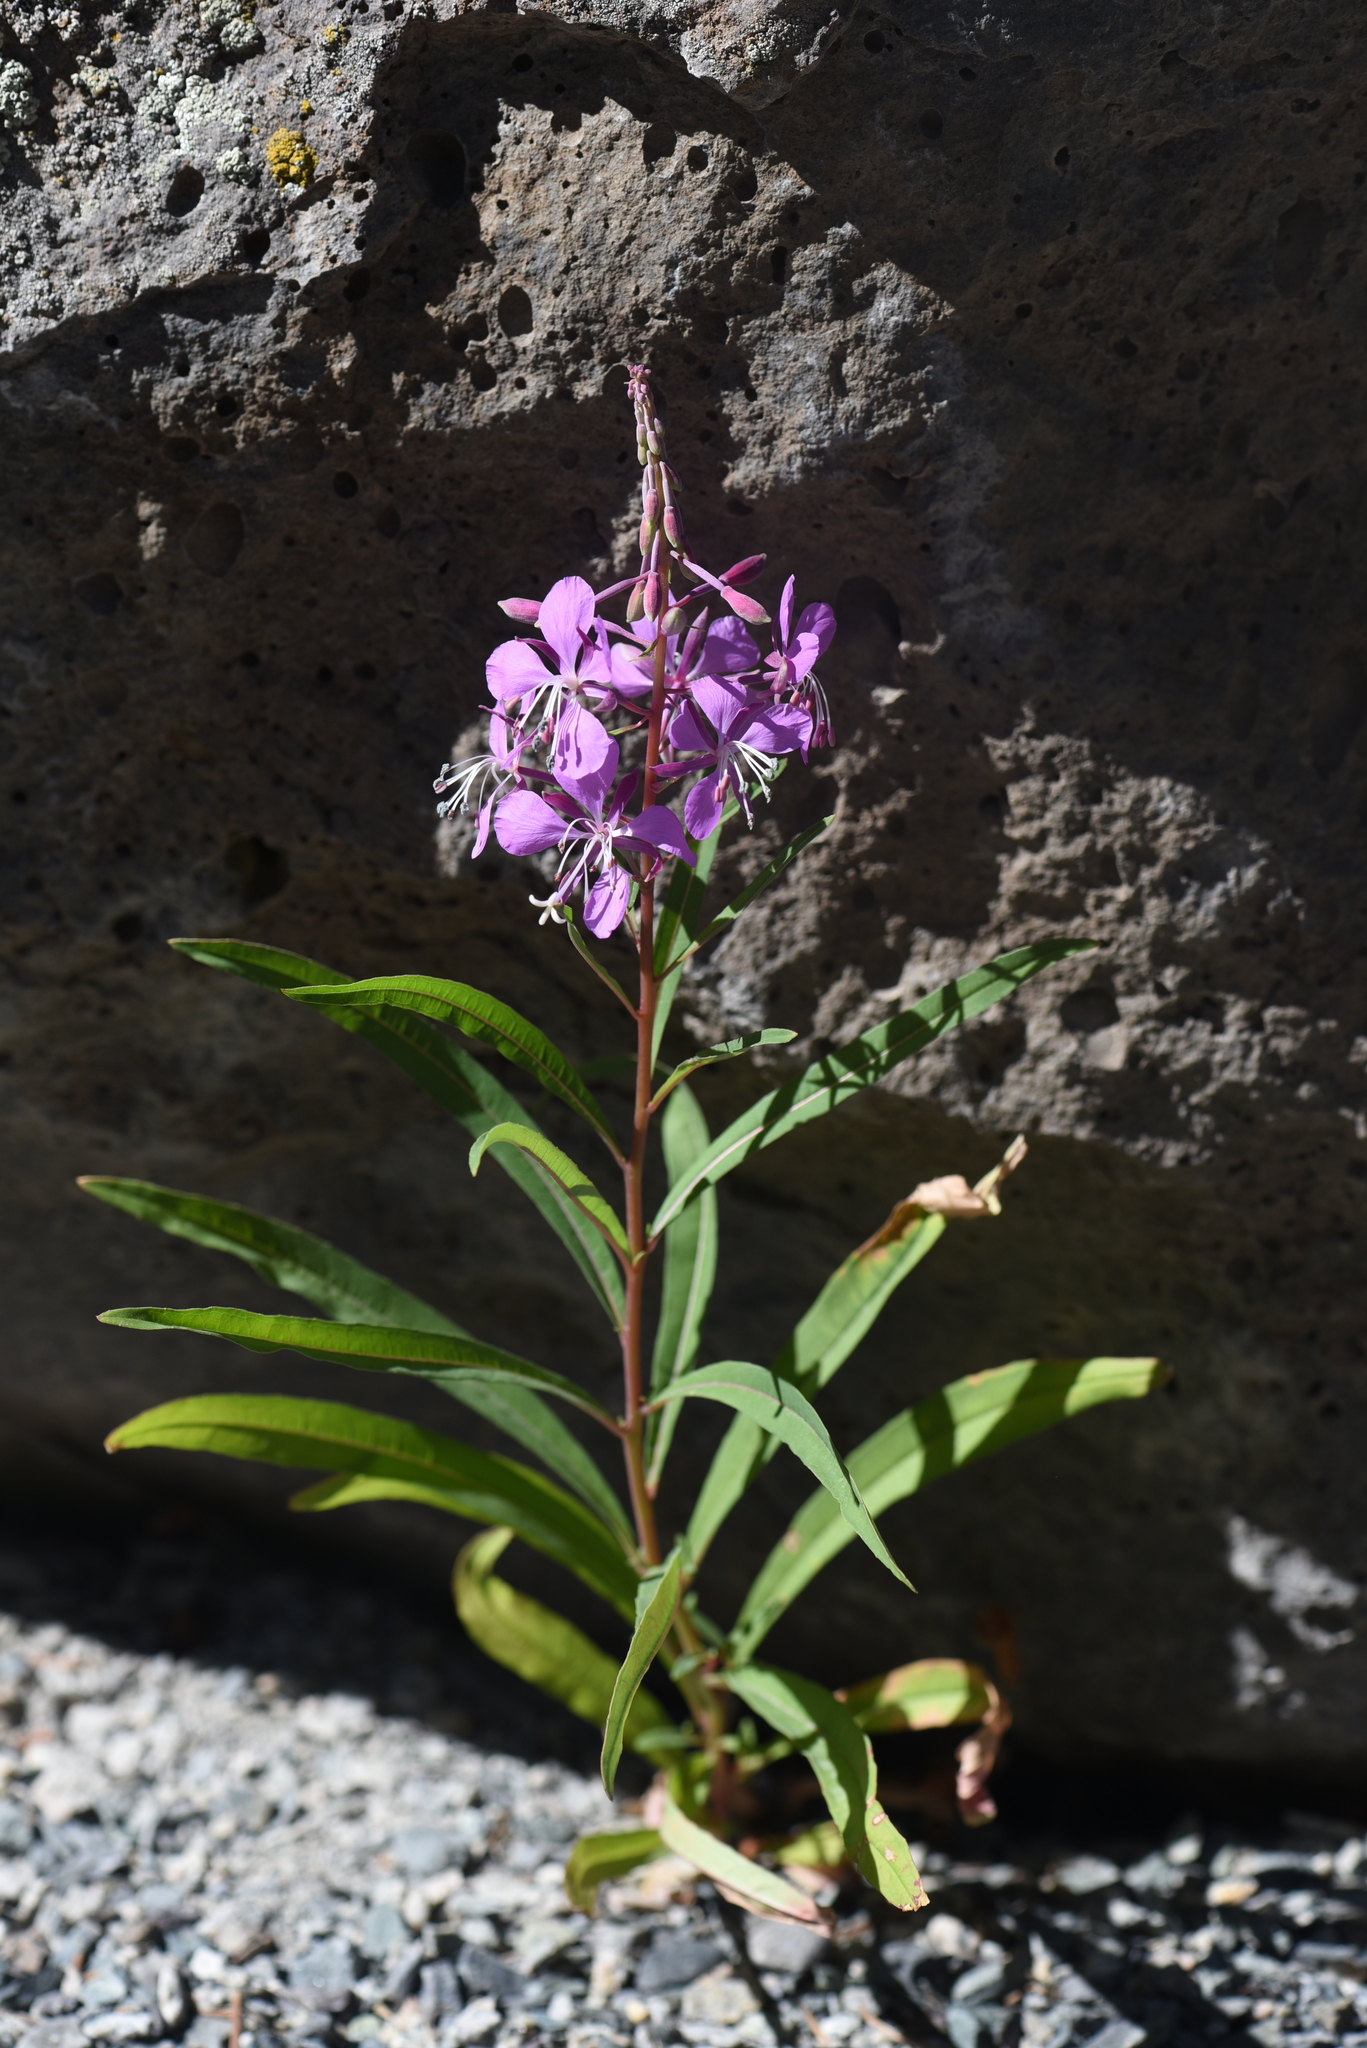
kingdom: Plantae
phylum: Tracheophyta
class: Magnoliopsida
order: Myrtales
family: Onagraceae
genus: Chamaenerion
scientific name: Chamaenerion angustifolium
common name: Fireweed
